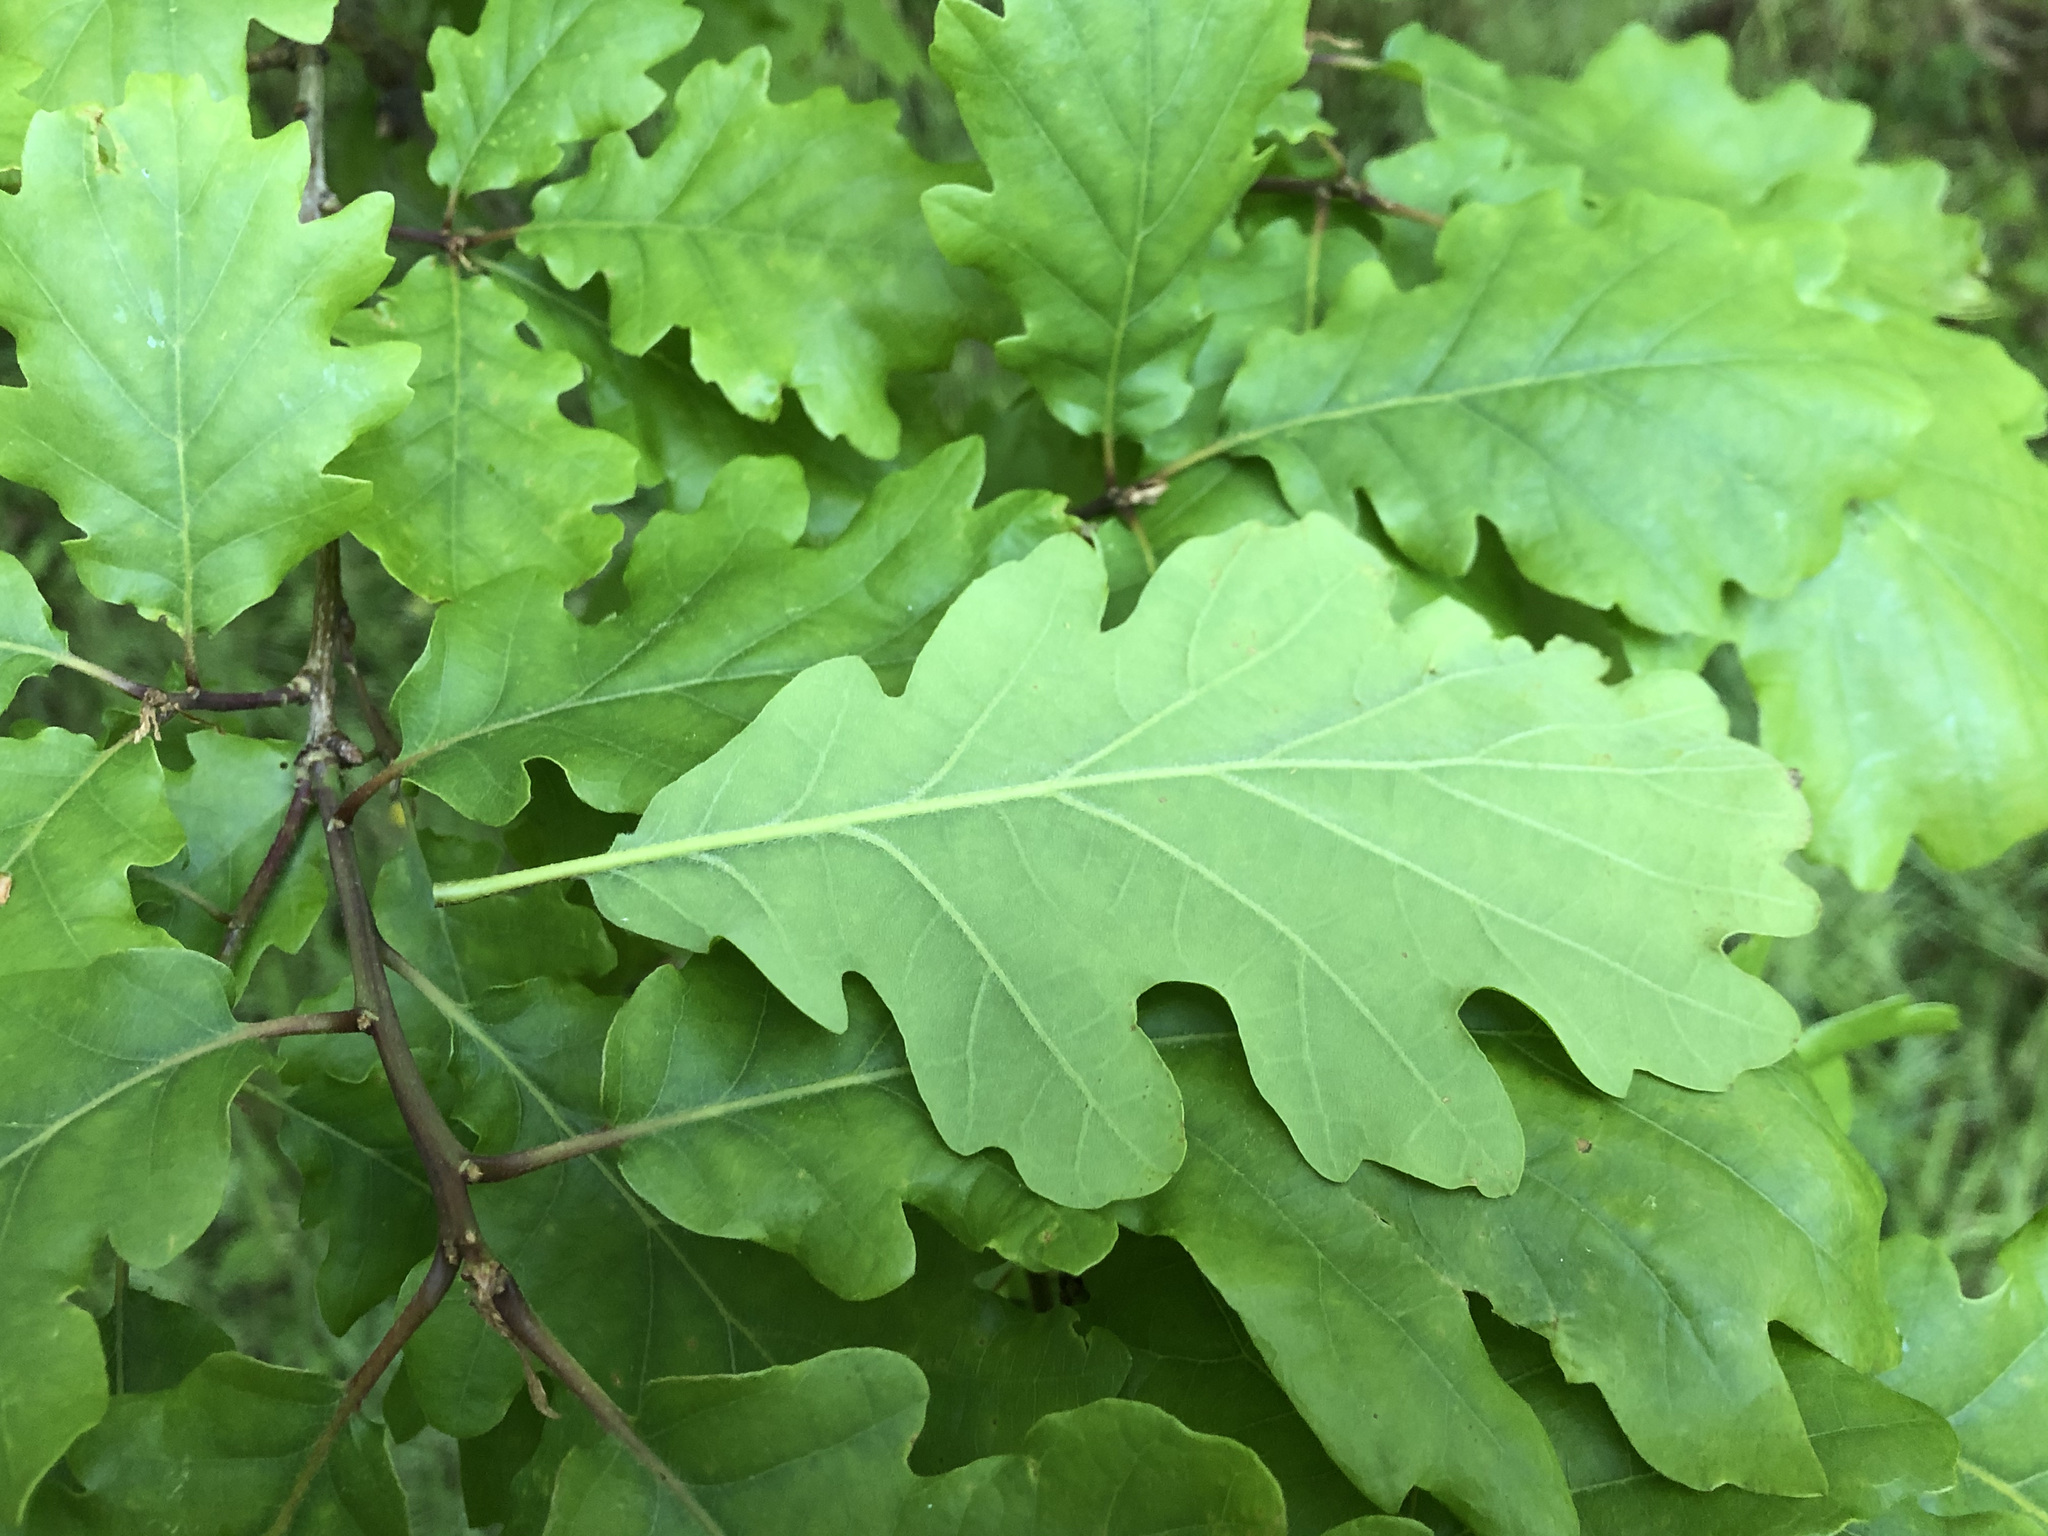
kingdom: Plantae
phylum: Tracheophyta
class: Magnoliopsida
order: Fagales
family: Fagaceae
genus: Quercus
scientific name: Quercus petraea
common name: Sessile oak
